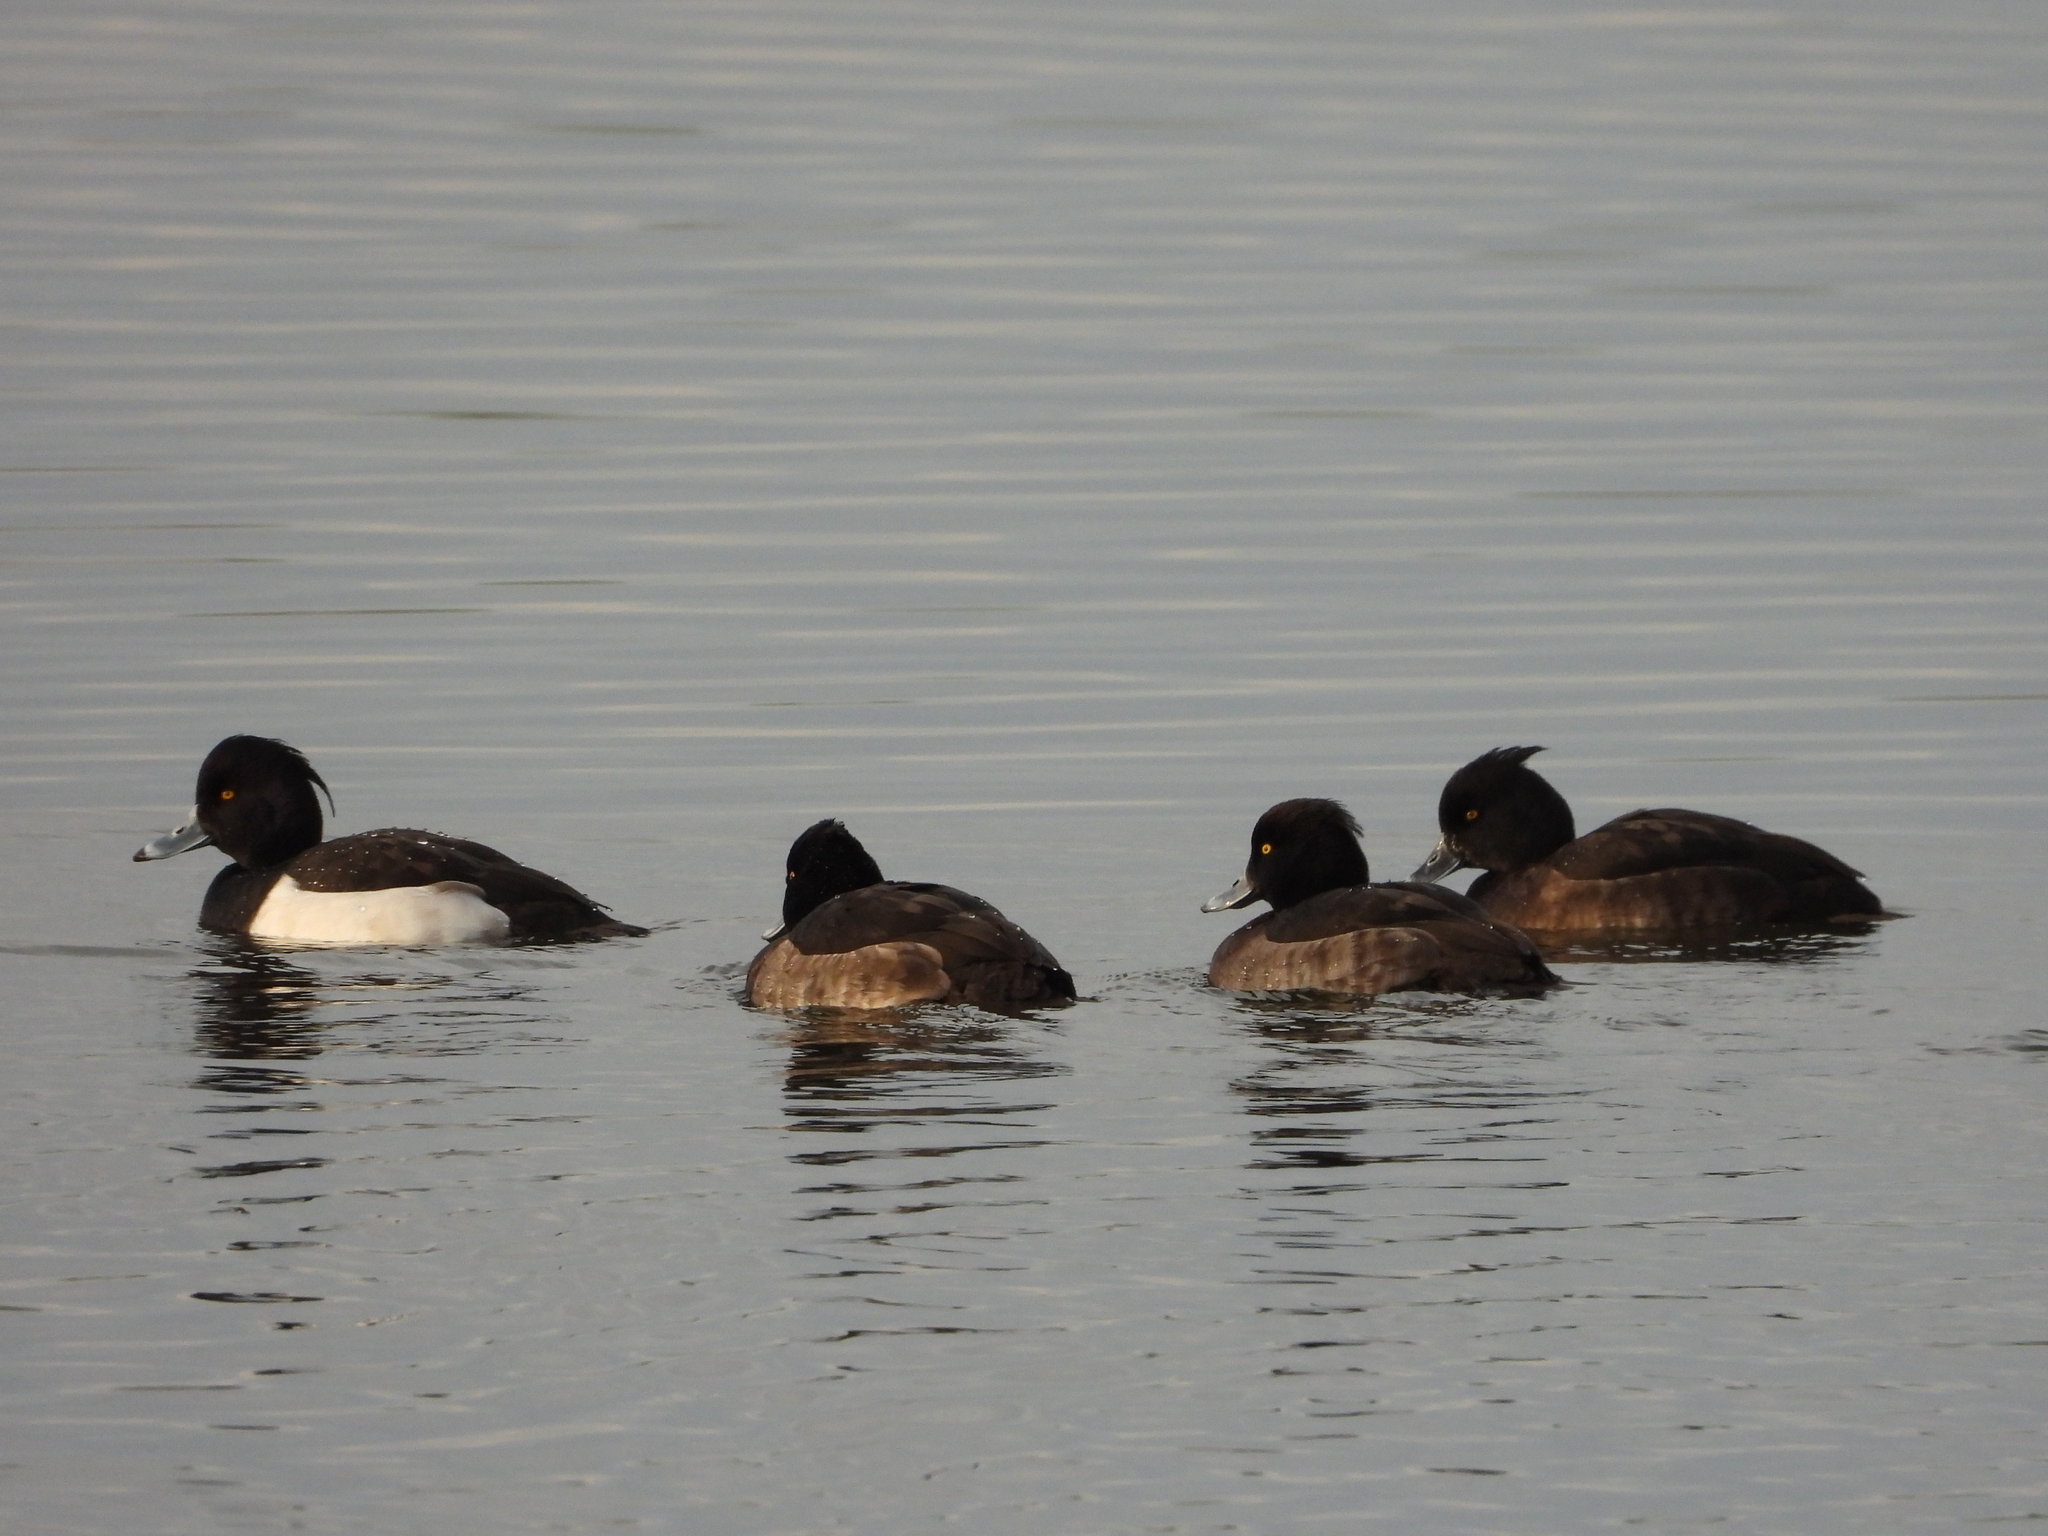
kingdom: Animalia
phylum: Chordata
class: Aves
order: Anseriformes
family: Anatidae
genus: Aythya
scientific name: Aythya fuligula
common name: Tufted duck
